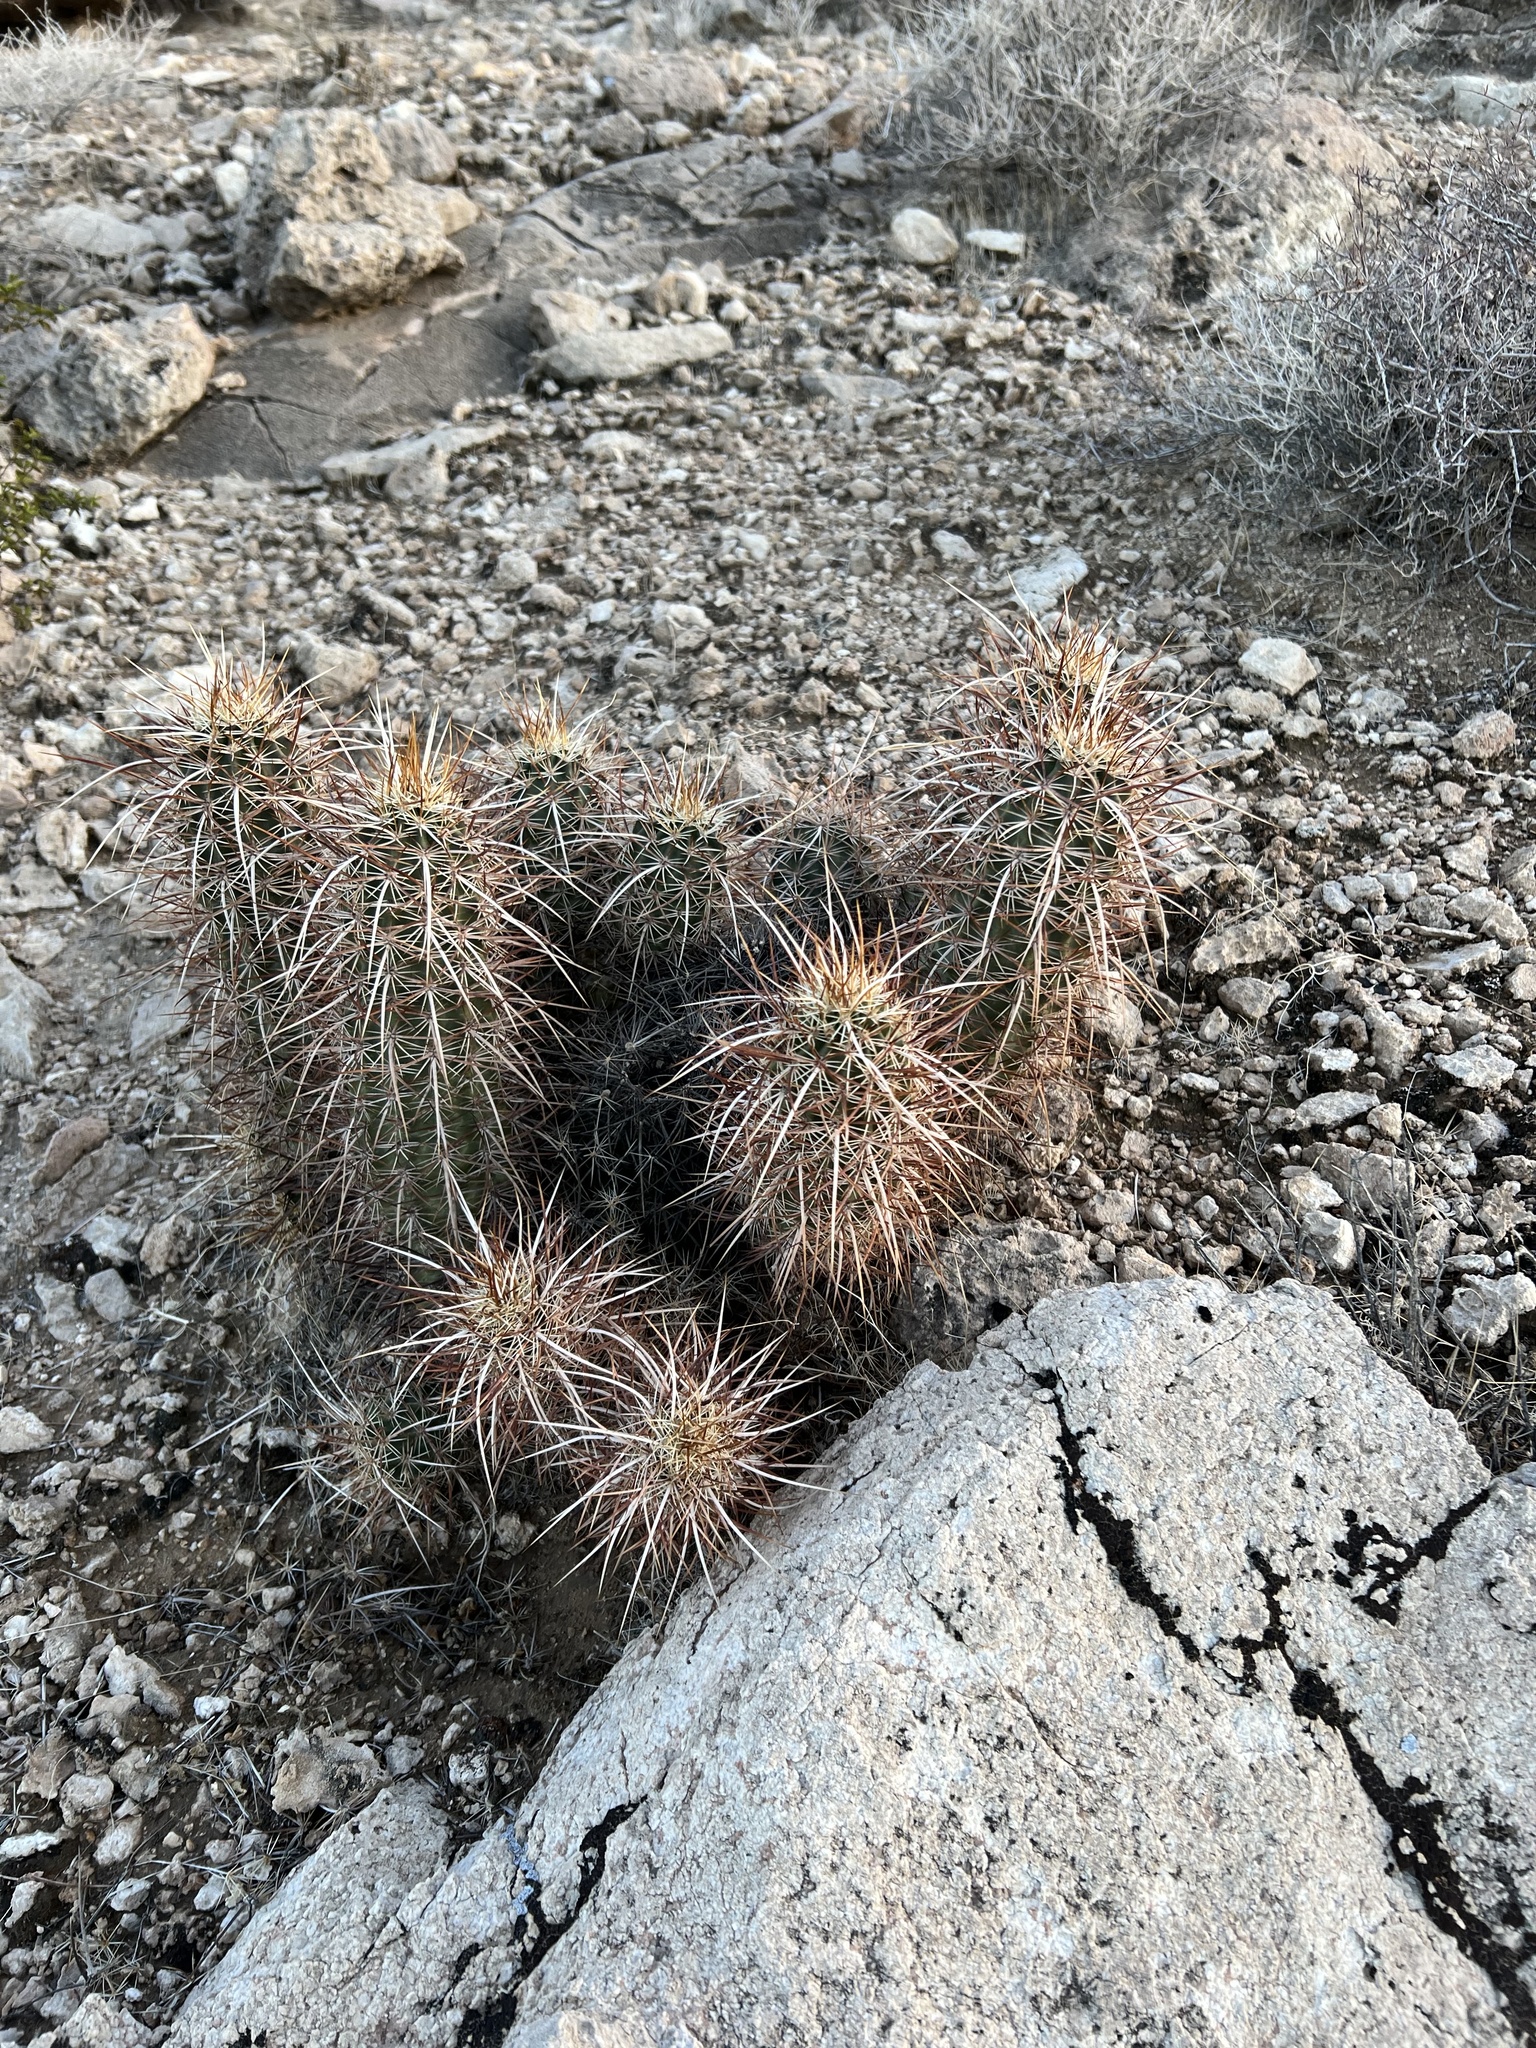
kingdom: Plantae
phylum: Tracheophyta
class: Magnoliopsida
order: Caryophyllales
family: Cactaceae
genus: Echinocereus
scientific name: Echinocereus engelmannii
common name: Engelmann's hedgehog cactus
